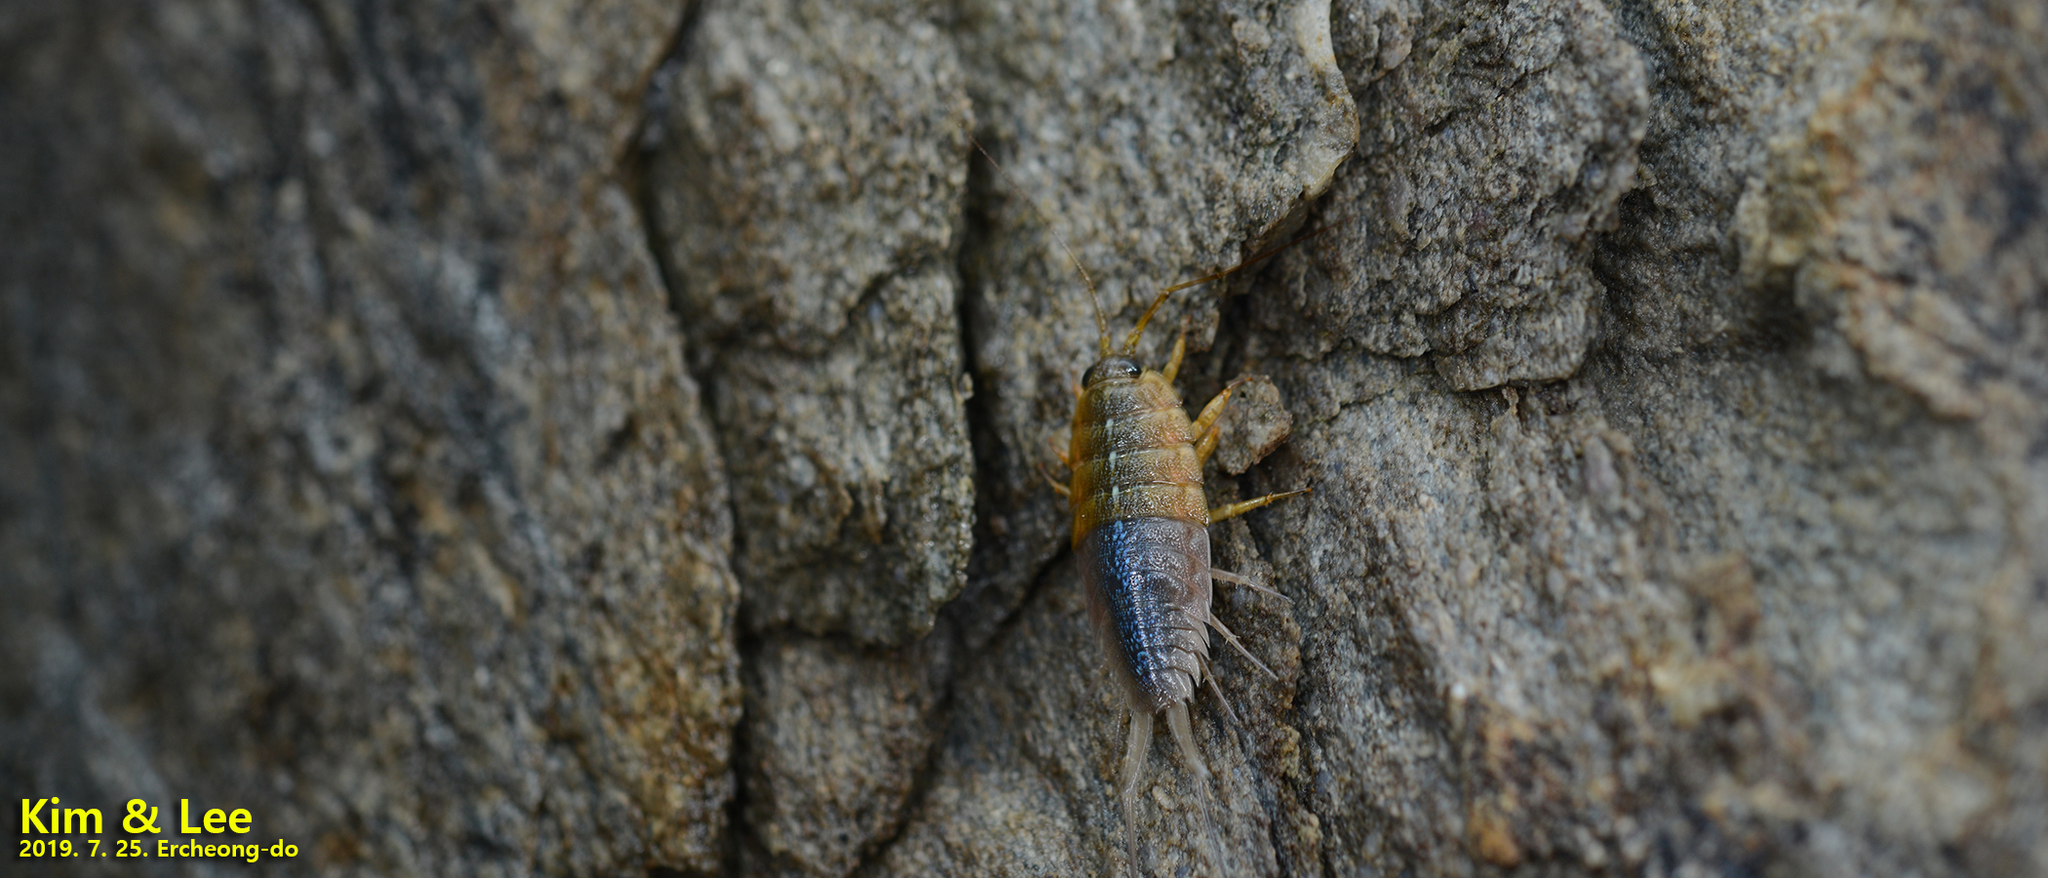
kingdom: Animalia
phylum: Arthropoda
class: Malacostraca
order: Isopoda
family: Ligiidae
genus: Ligia
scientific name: Ligia exotica
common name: Wharf roach
